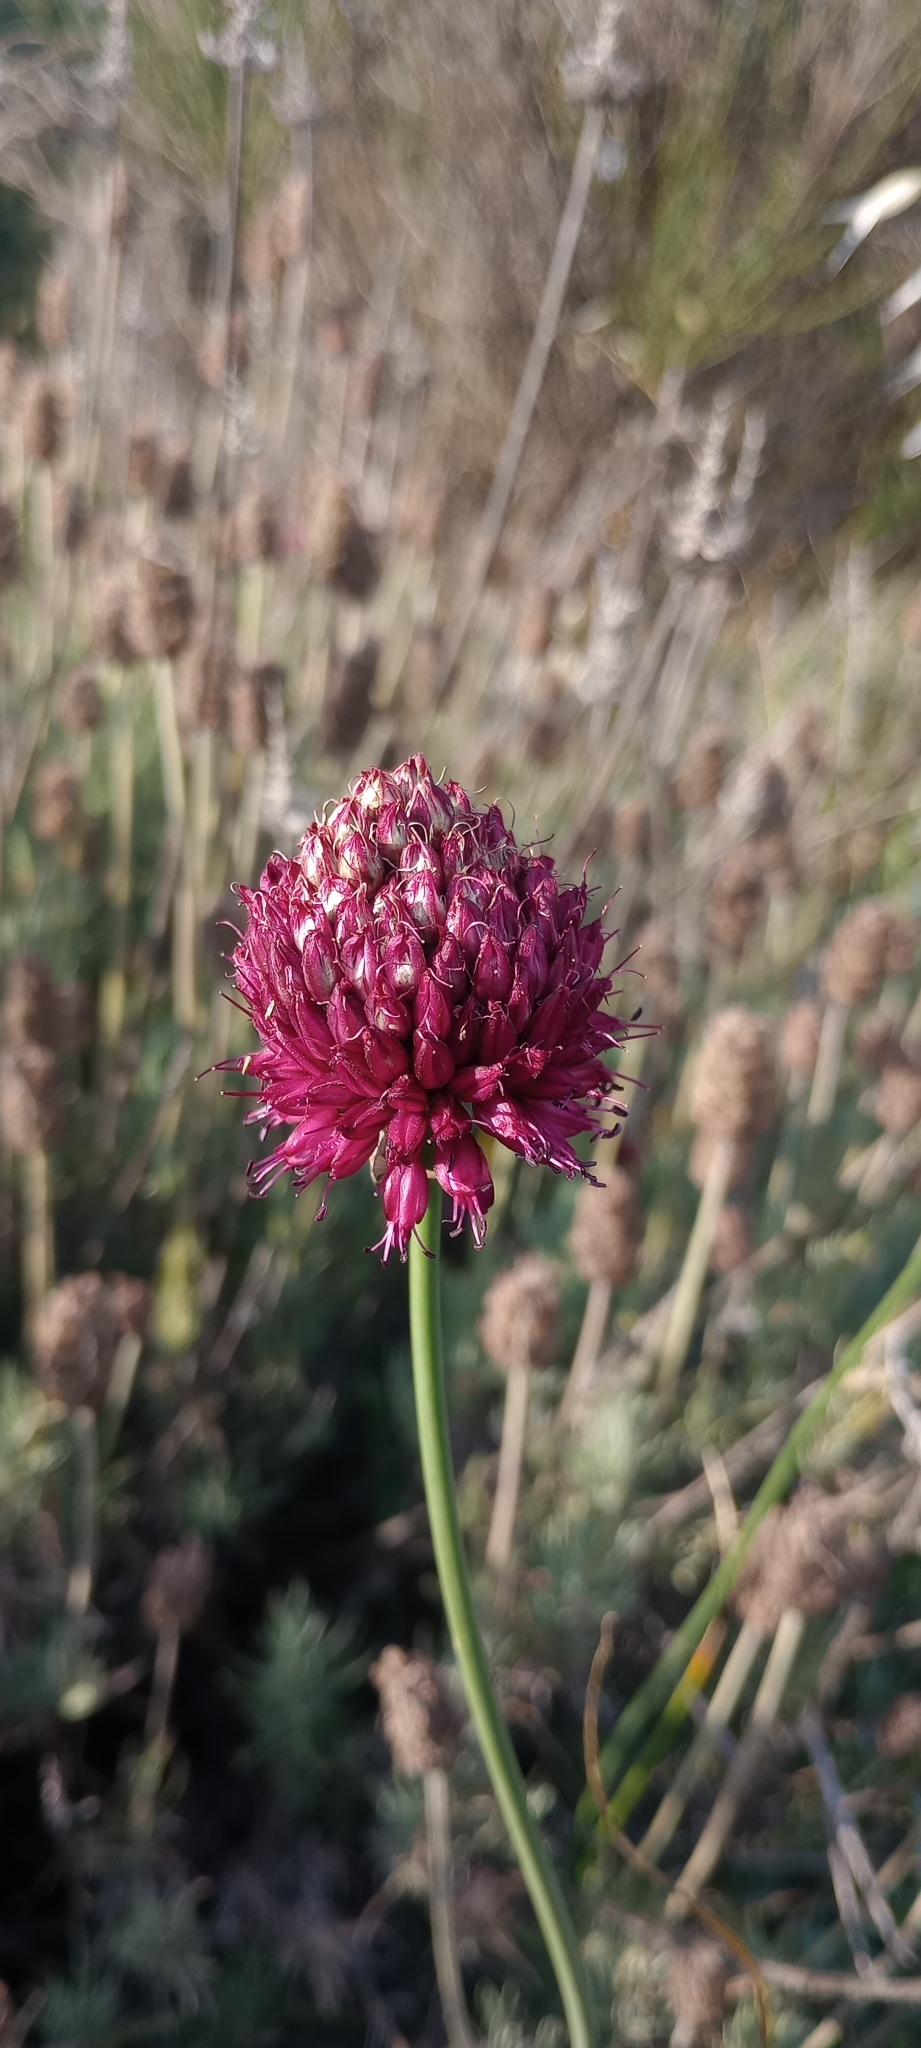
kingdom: Plantae
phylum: Tracheophyta
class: Liliopsida
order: Asparagales
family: Amaryllidaceae
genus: Allium
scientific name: Allium sphaerocephalon
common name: Round-headed leek
